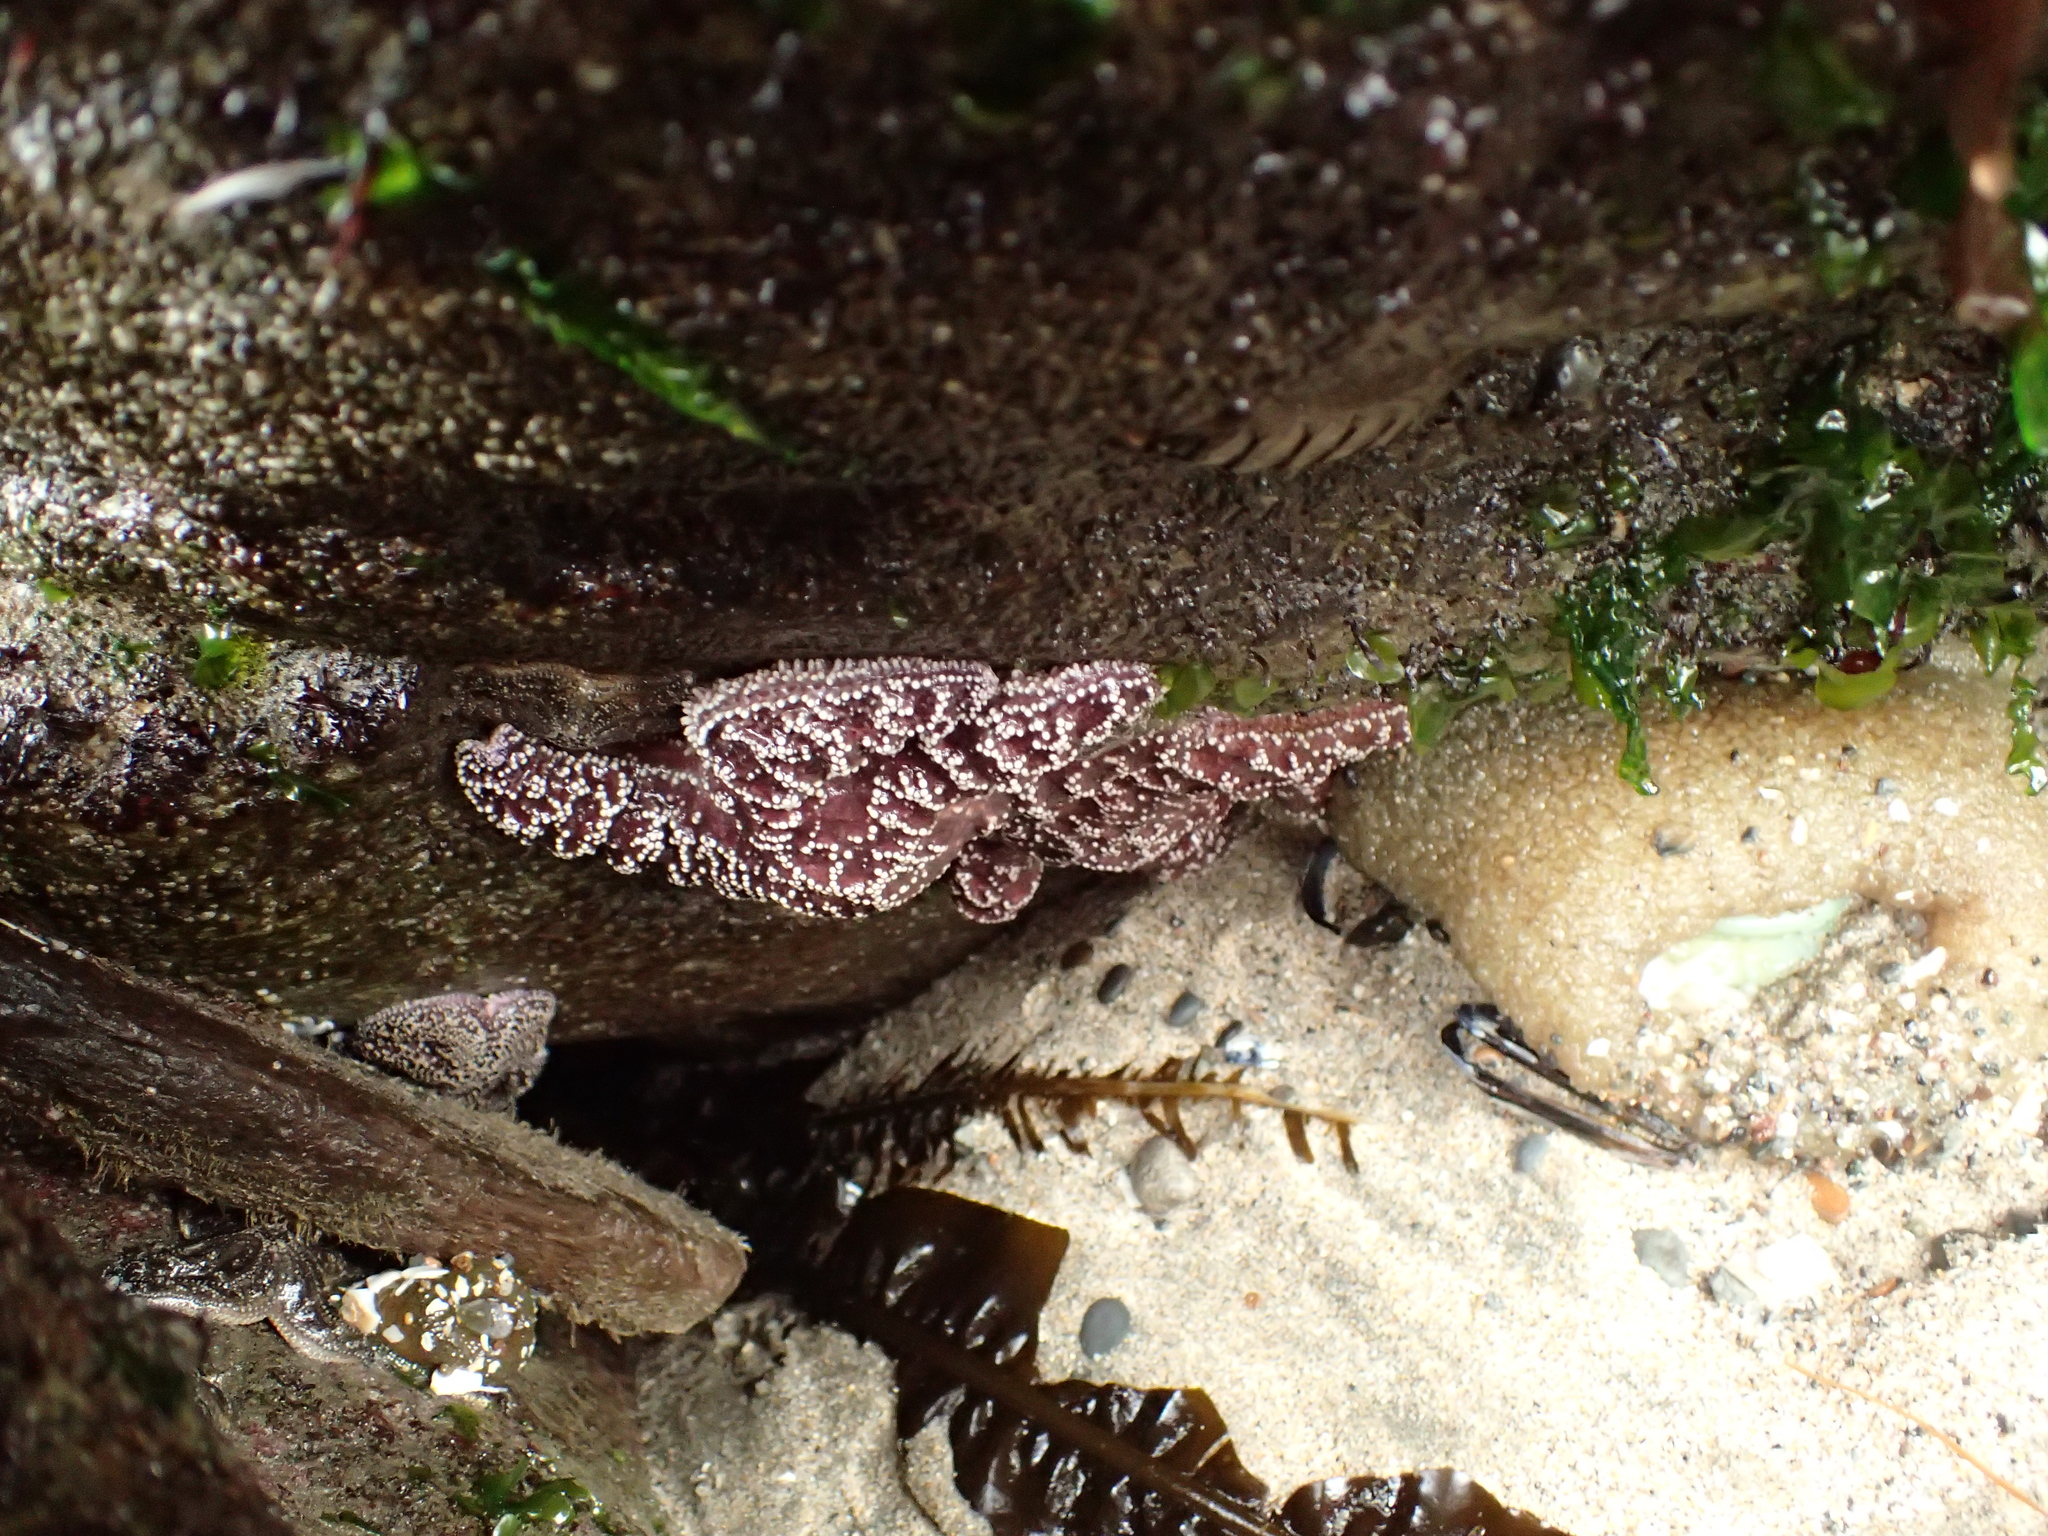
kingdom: Animalia
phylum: Echinodermata
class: Asteroidea
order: Forcipulatida
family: Asteriidae
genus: Pisaster
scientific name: Pisaster ochraceus
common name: Ochre stars
